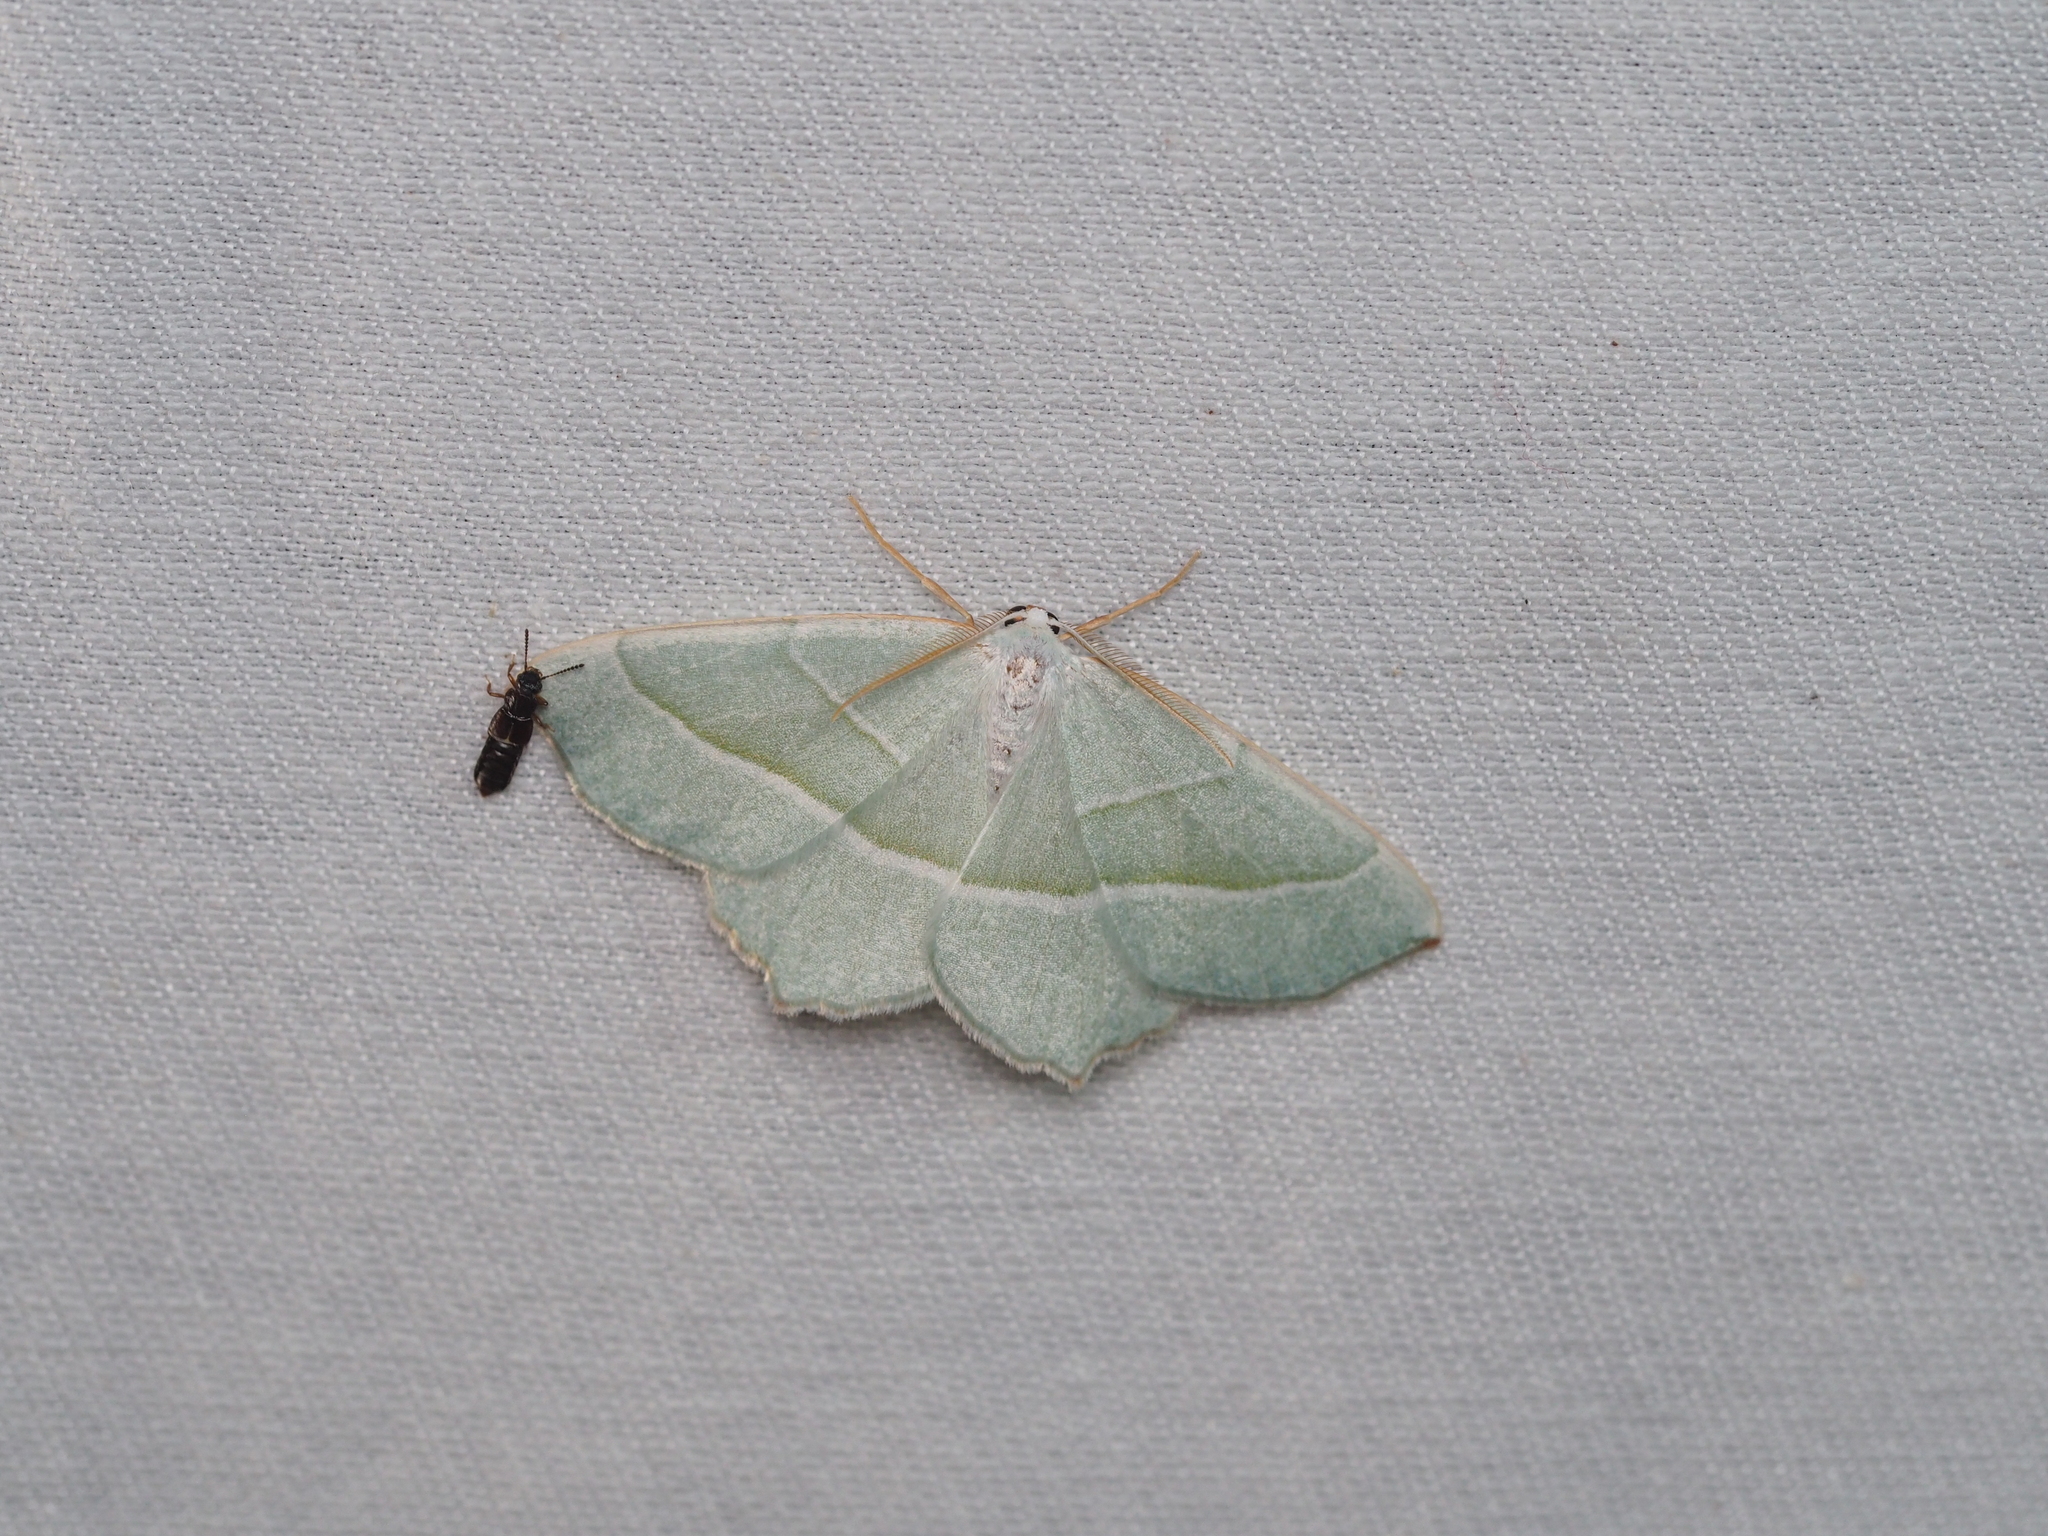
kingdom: Animalia
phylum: Arthropoda
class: Insecta
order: Lepidoptera
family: Geometridae
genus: Campaea
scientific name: Campaea margaritaria
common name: Light emerald
